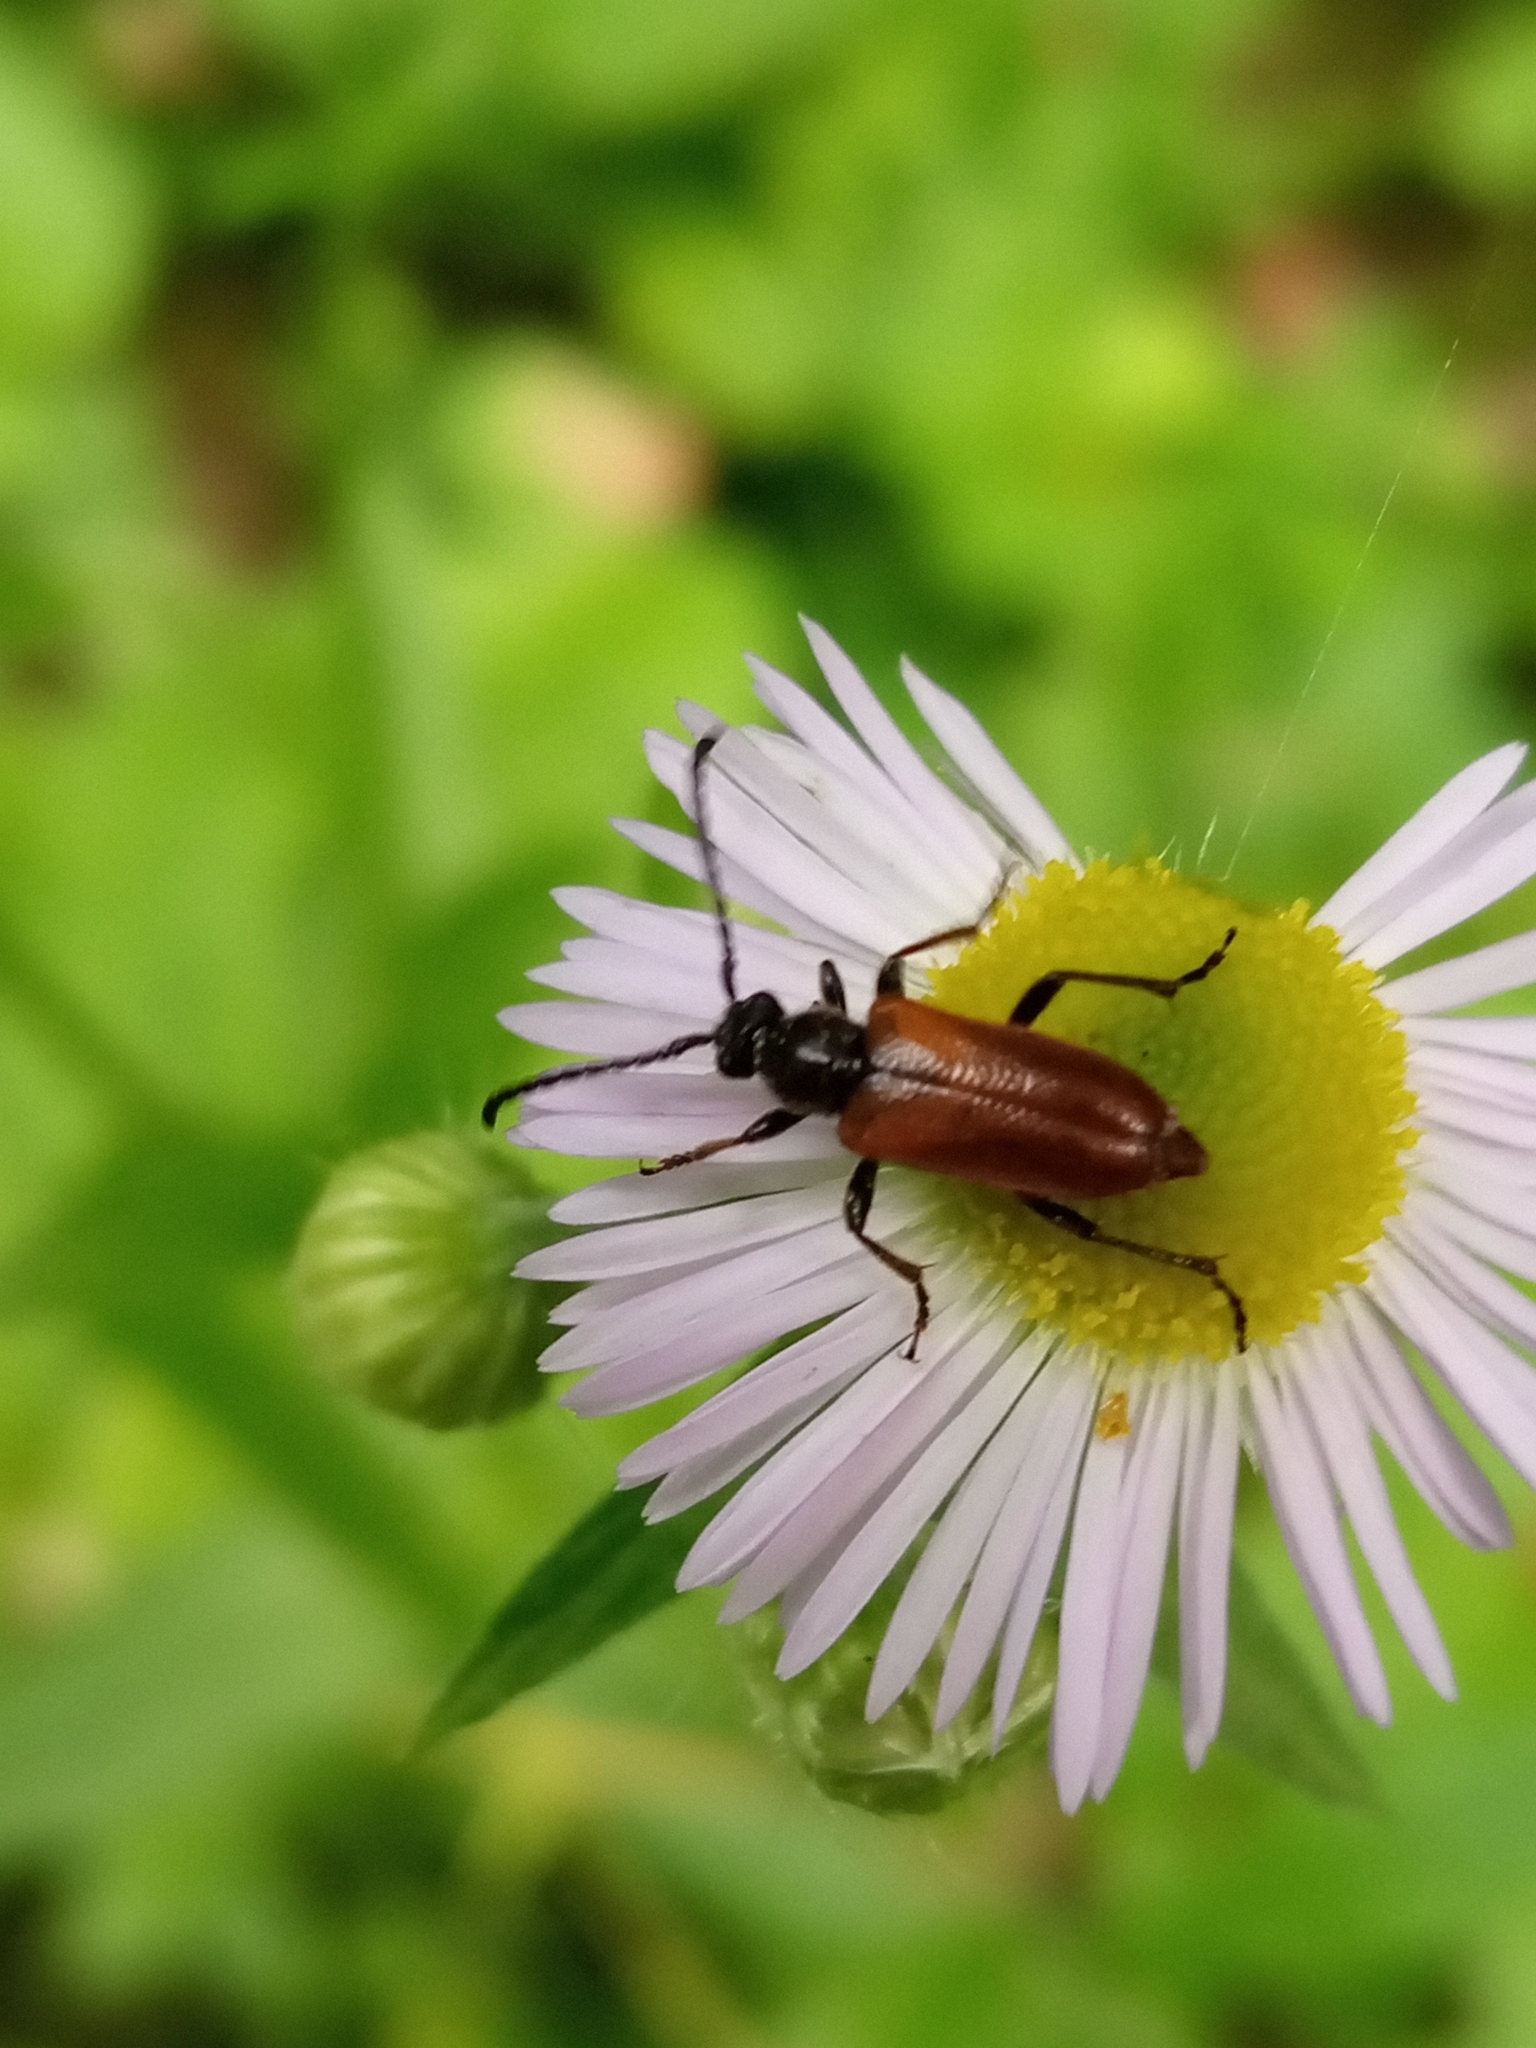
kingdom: Animalia
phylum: Arthropoda
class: Insecta
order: Coleoptera
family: Cerambycidae
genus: Pseudovadonia
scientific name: Pseudovadonia livida
